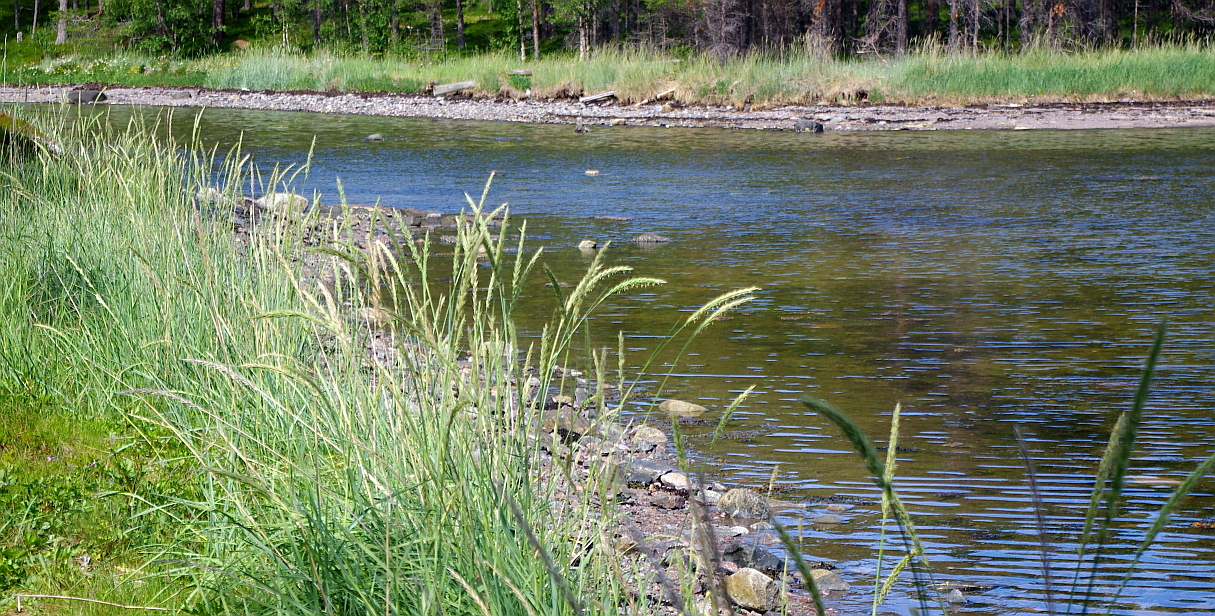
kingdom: Plantae
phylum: Tracheophyta
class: Liliopsida
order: Poales
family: Poaceae
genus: Leymus
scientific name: Leymus arenarius
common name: Lyme-grass
